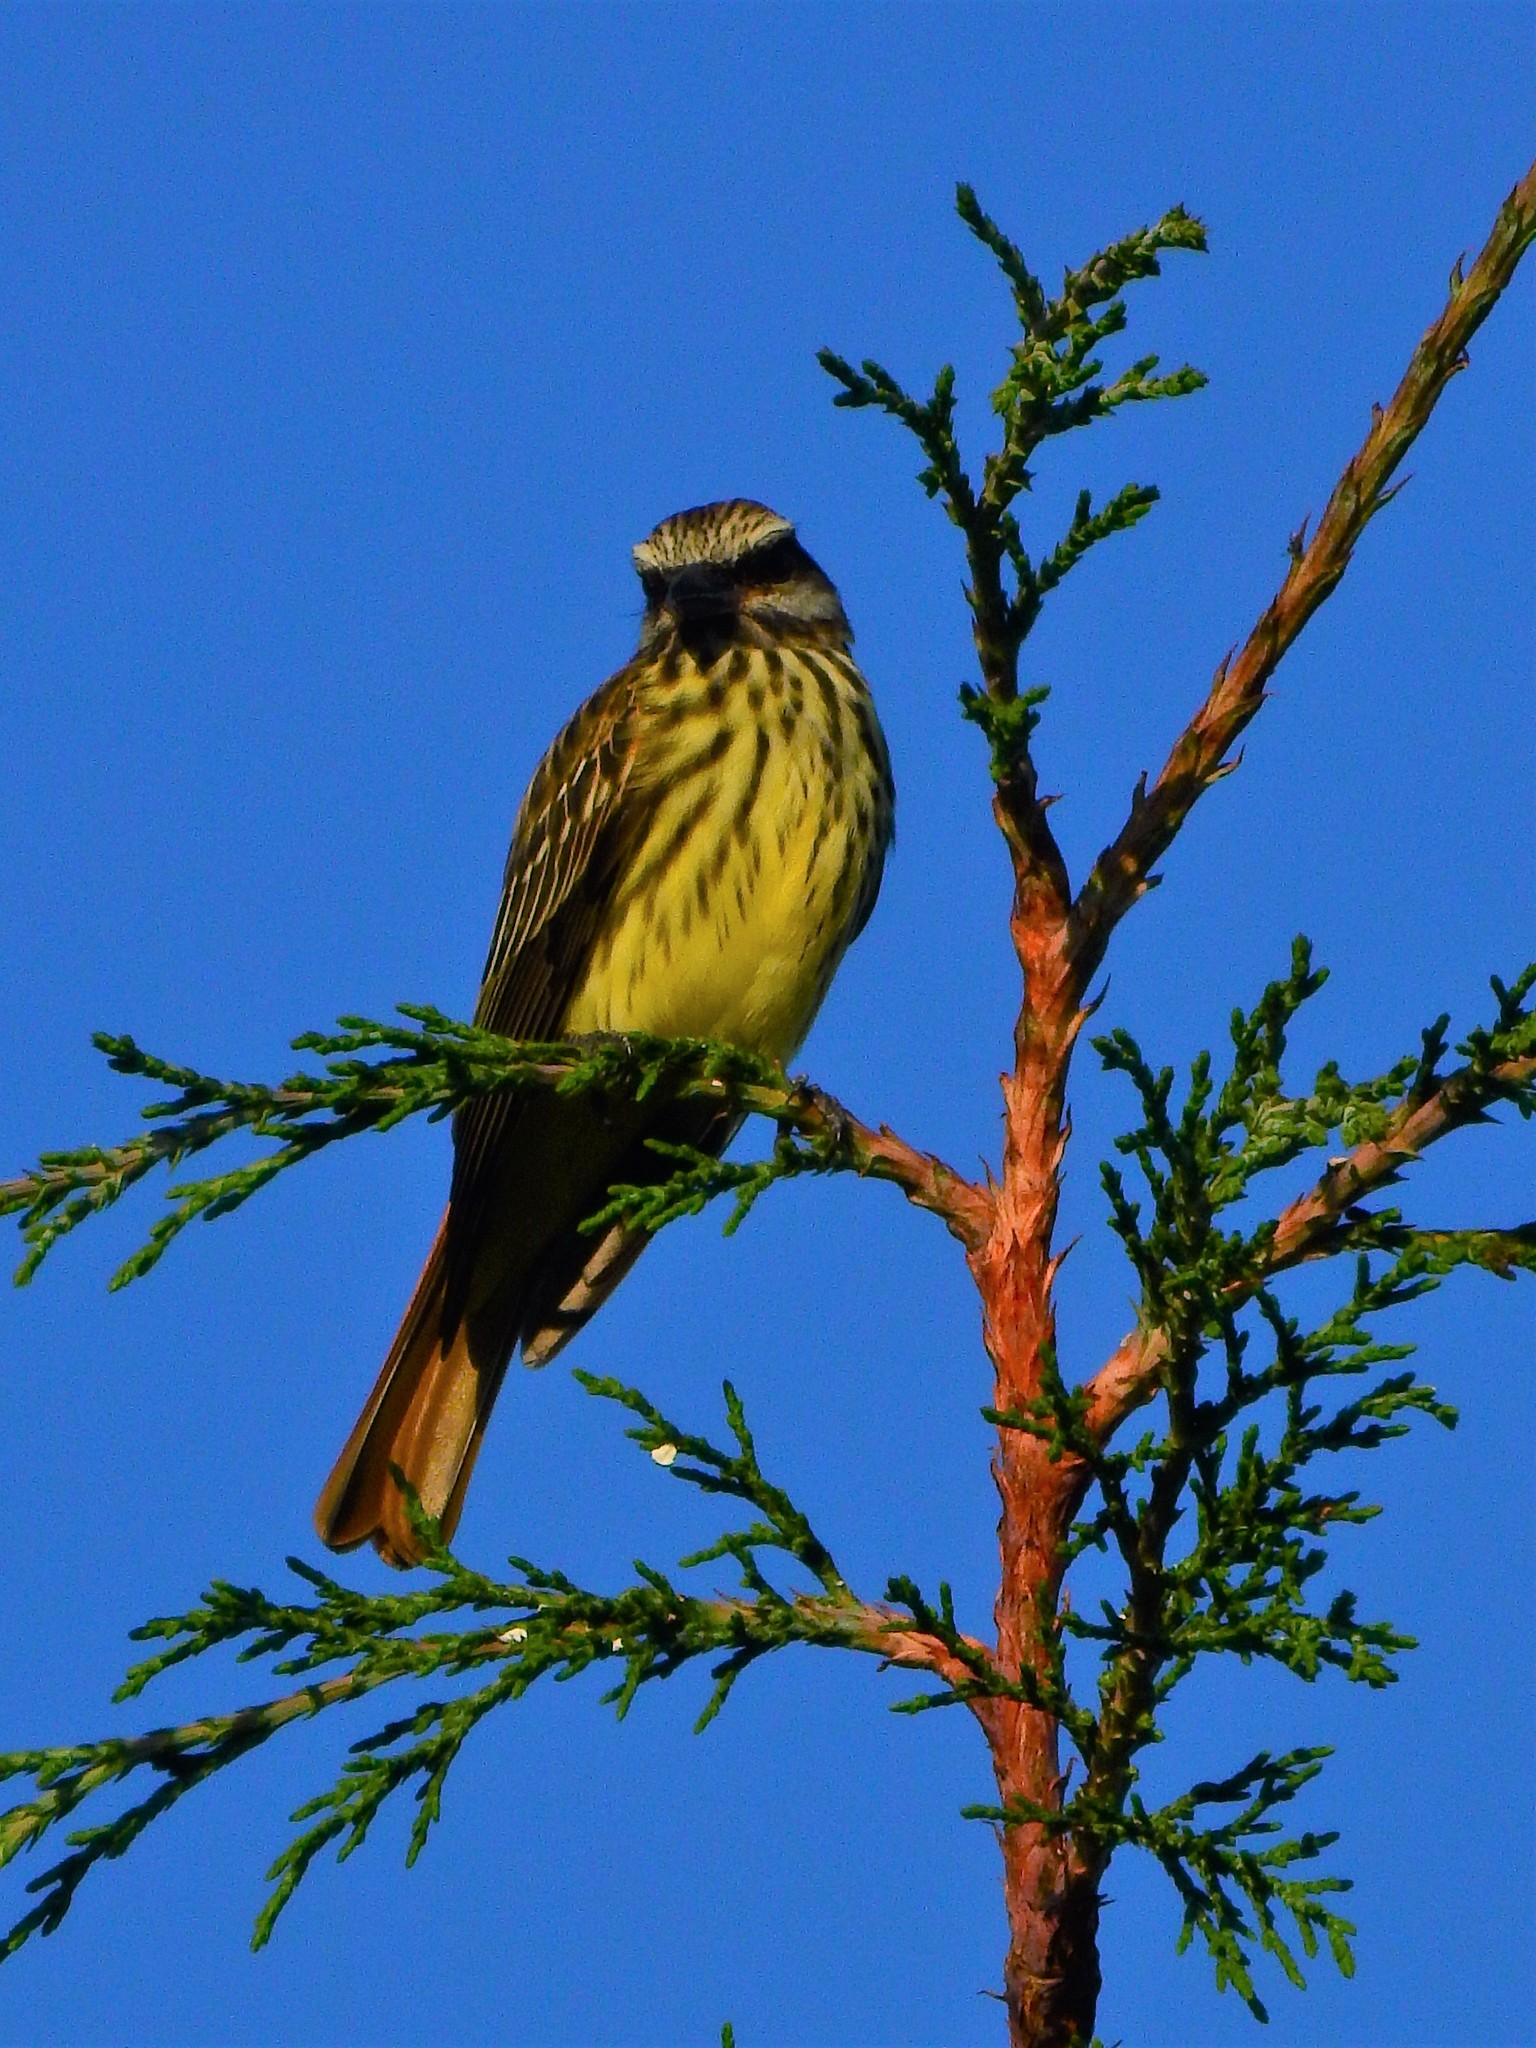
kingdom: Animalia
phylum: Chordata
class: Aves
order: Passeriformes
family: Tyrannidae
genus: Myiodynastes
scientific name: Myiodynastes luteiventris
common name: Sulphur-bellied flycatcher
